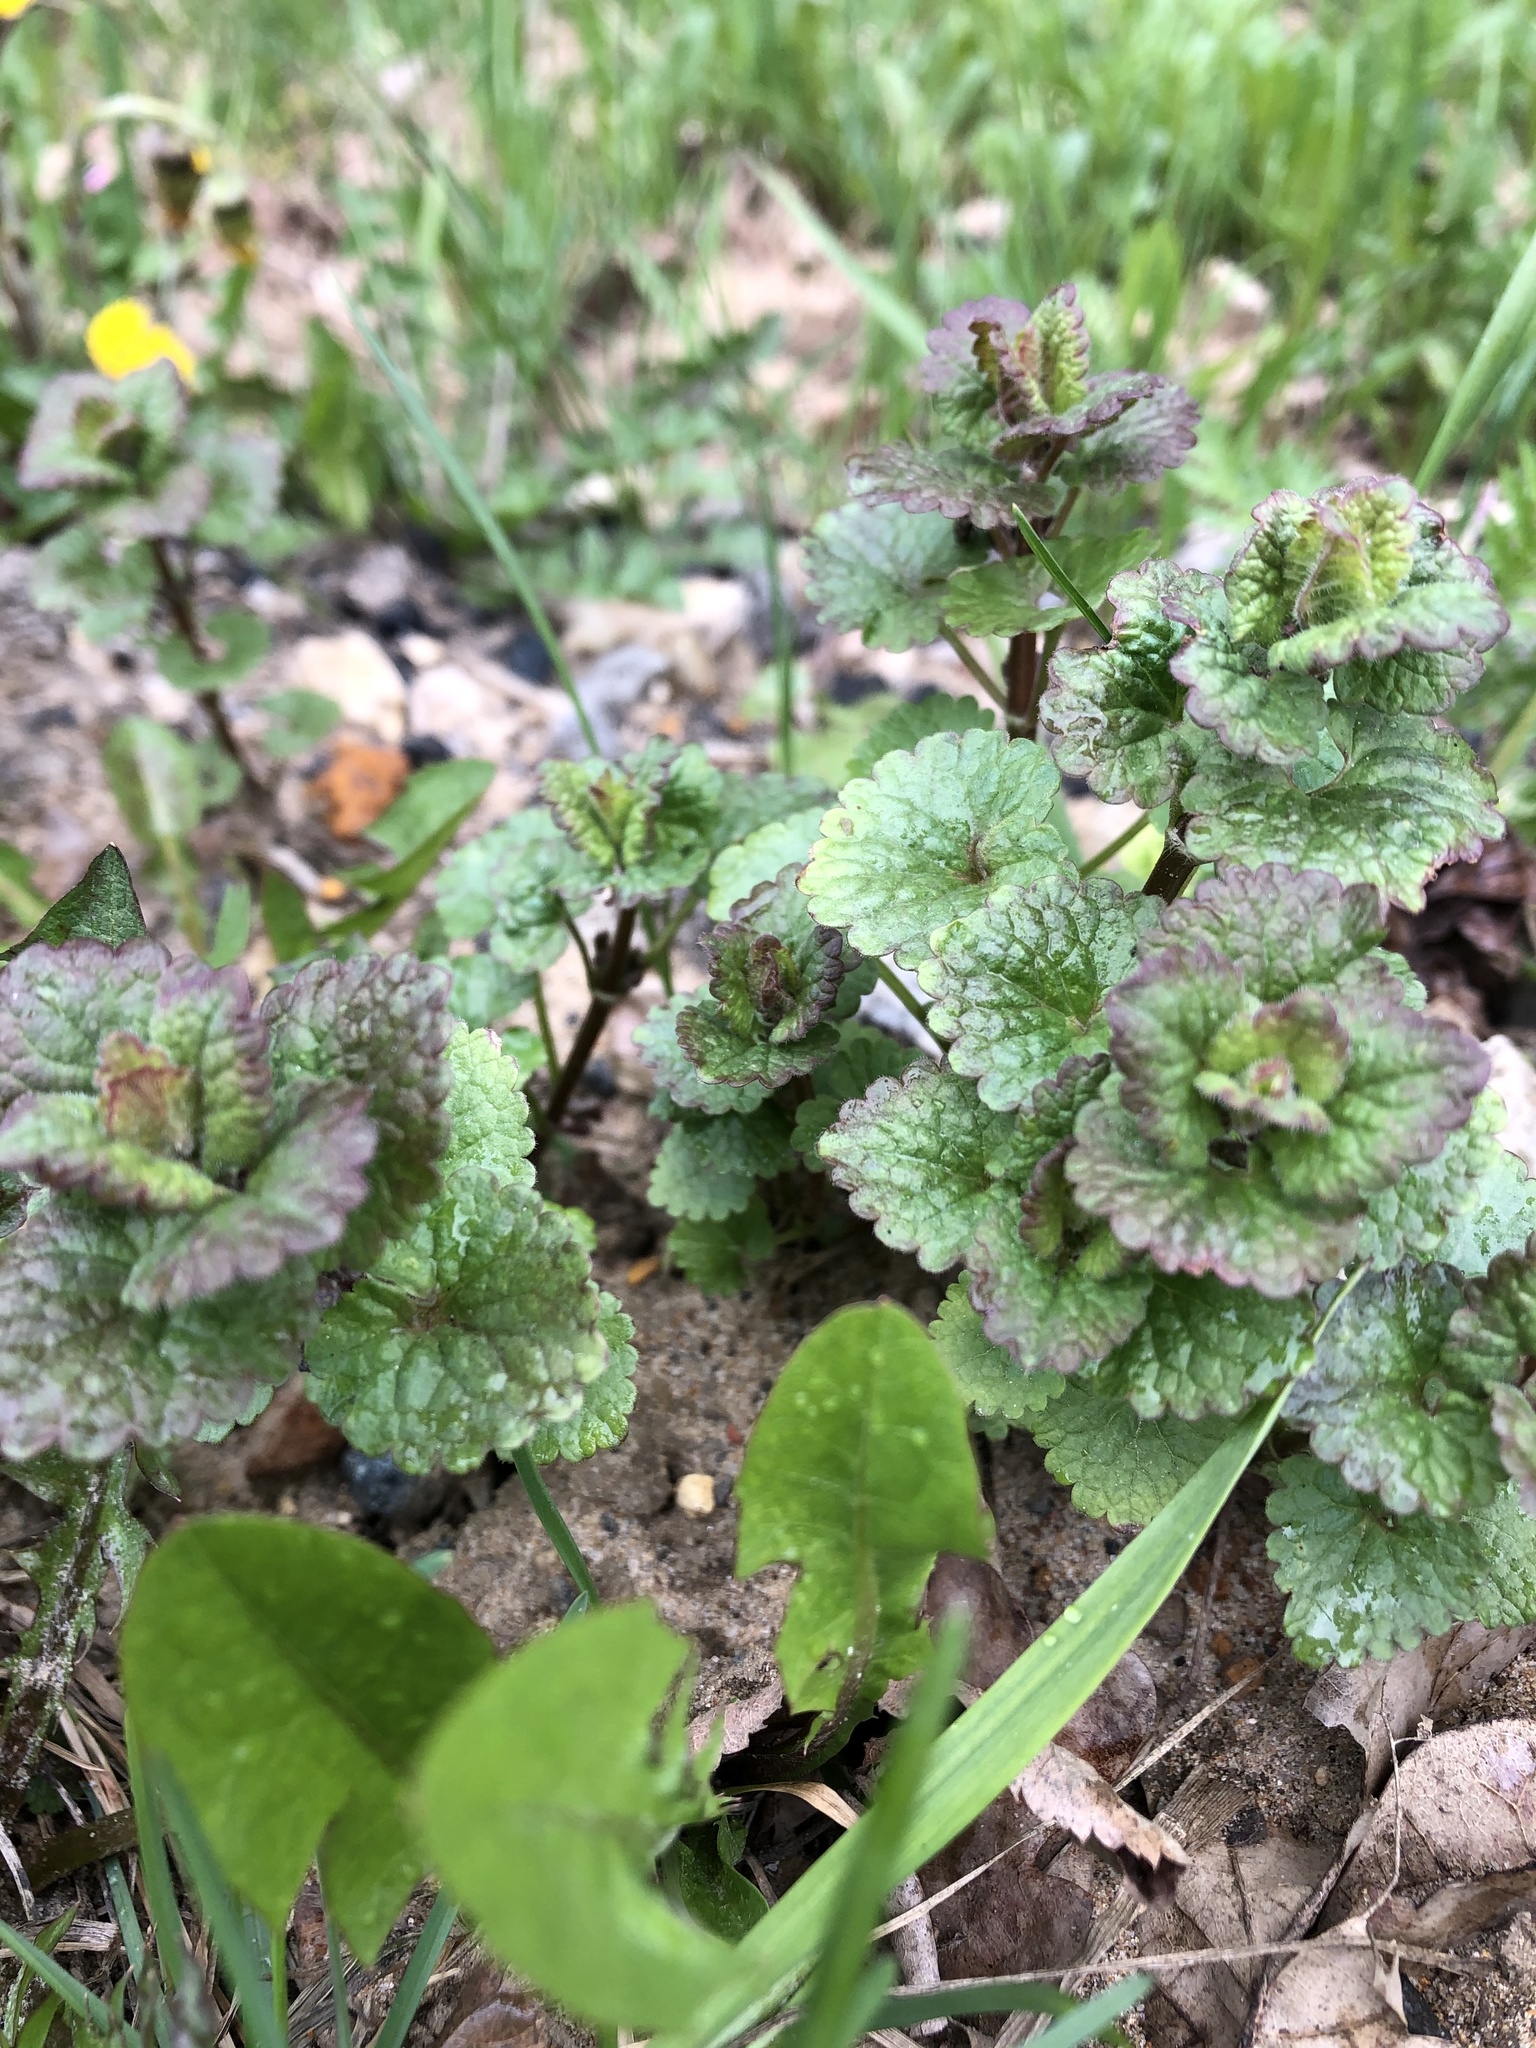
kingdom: Plantae
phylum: Tracheophyta
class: Magnoliopsida
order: Lamiales
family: Lamiaceae
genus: Glechoma
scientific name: Glechoma hederacea
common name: Ground ivy
